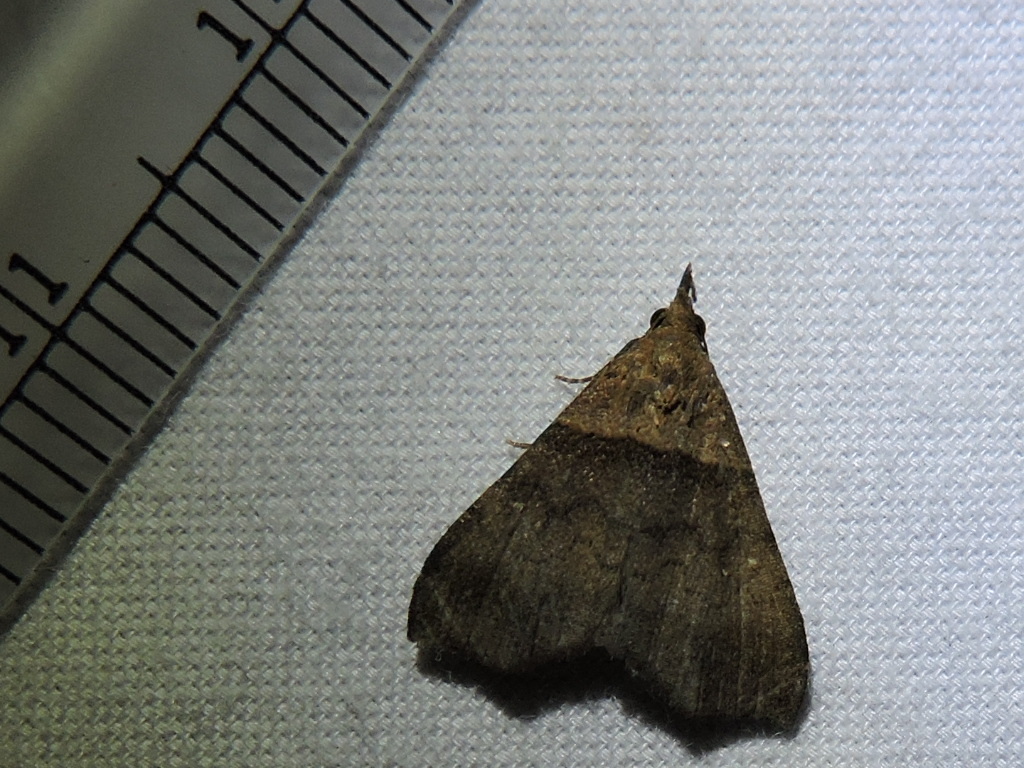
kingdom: Animalia
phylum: Arthropoda
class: Insecta
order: Lepidoptera
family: Erebidae
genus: Lascoria
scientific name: Lascoria ambigualis
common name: Ambiguous moth
